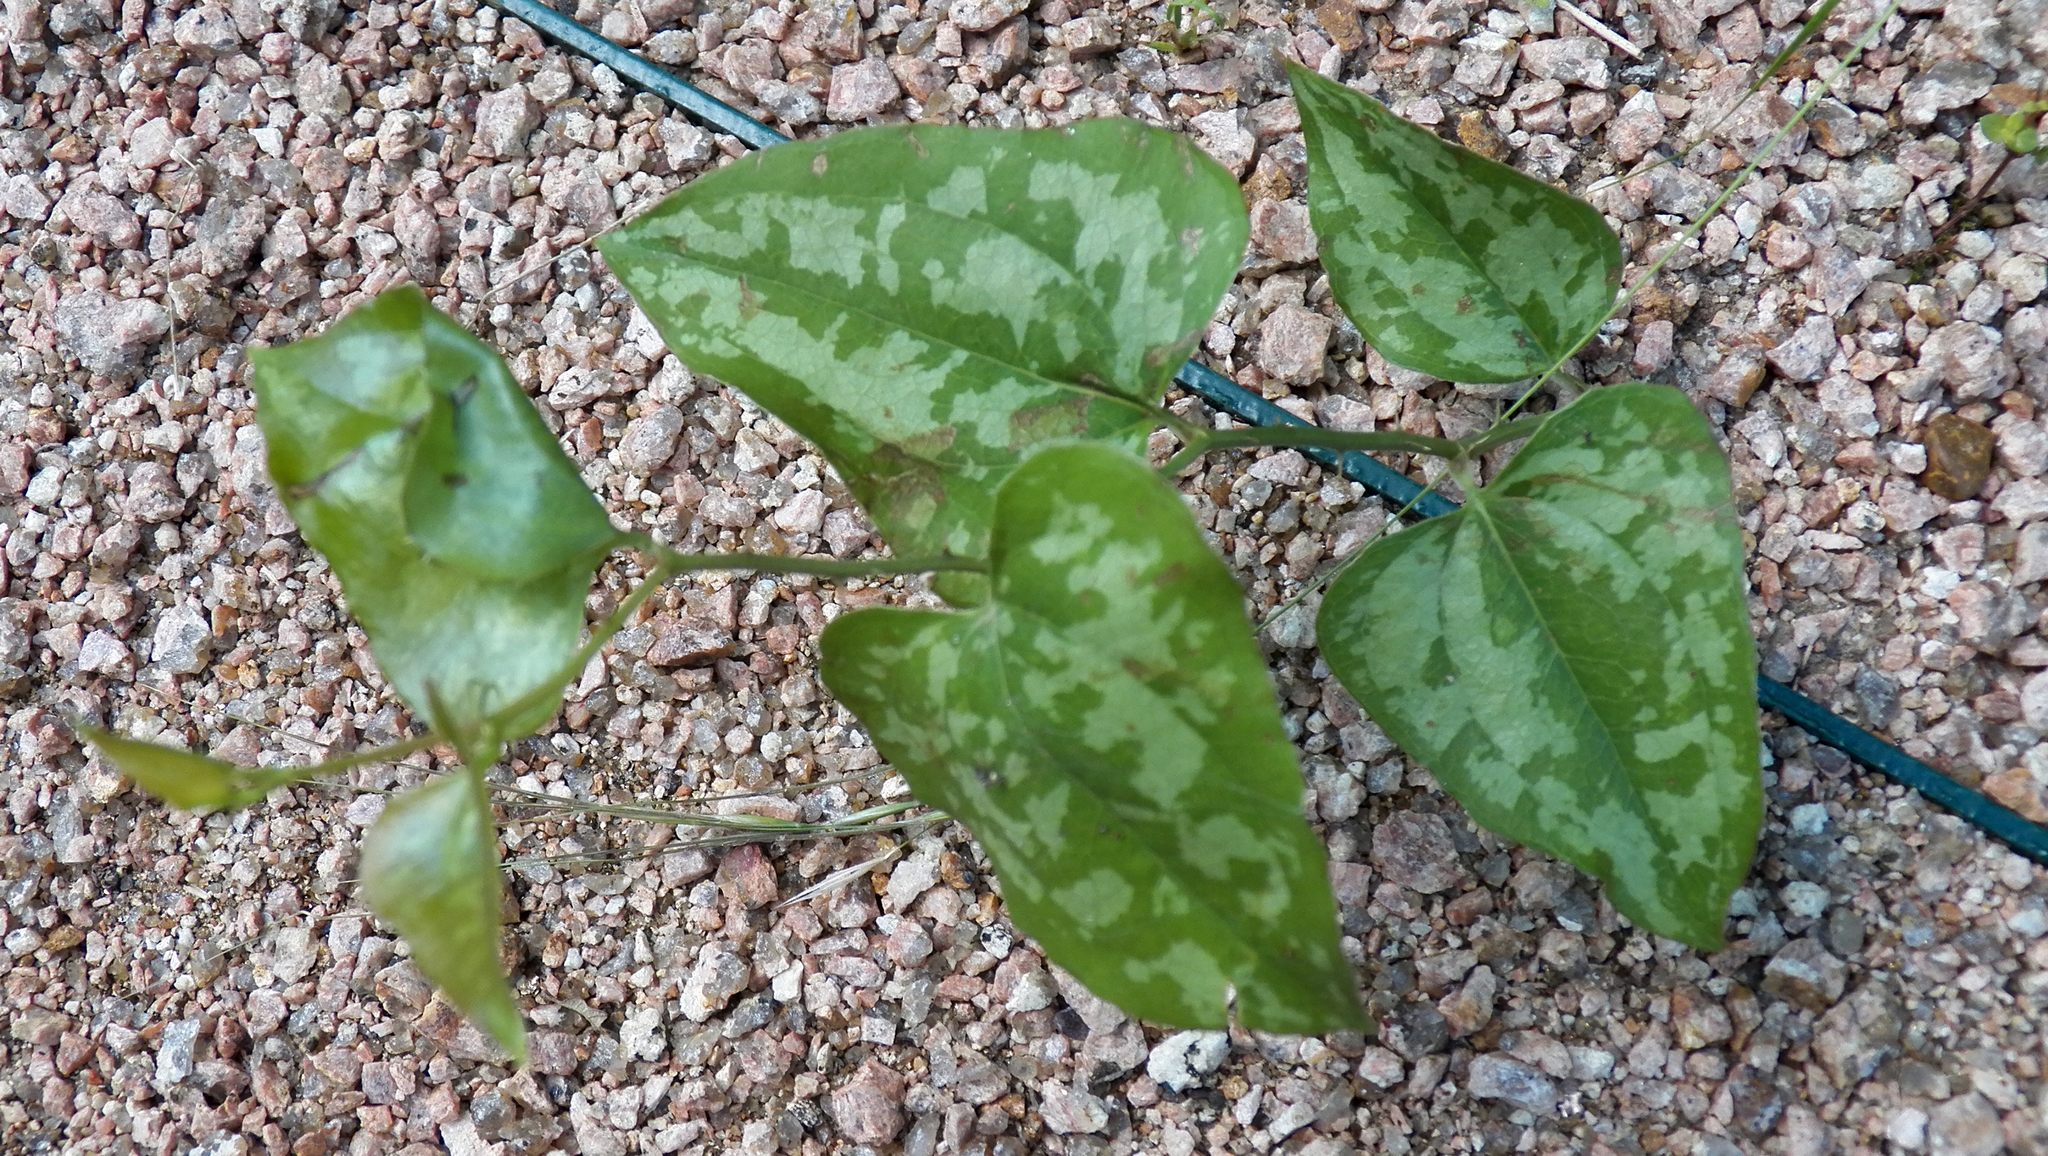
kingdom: Plantae
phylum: Tracheophyta
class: Liliopsida
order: Liliales
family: Smilacaceae
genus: Smilax
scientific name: Smilax bona-nox
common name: Catbrier
